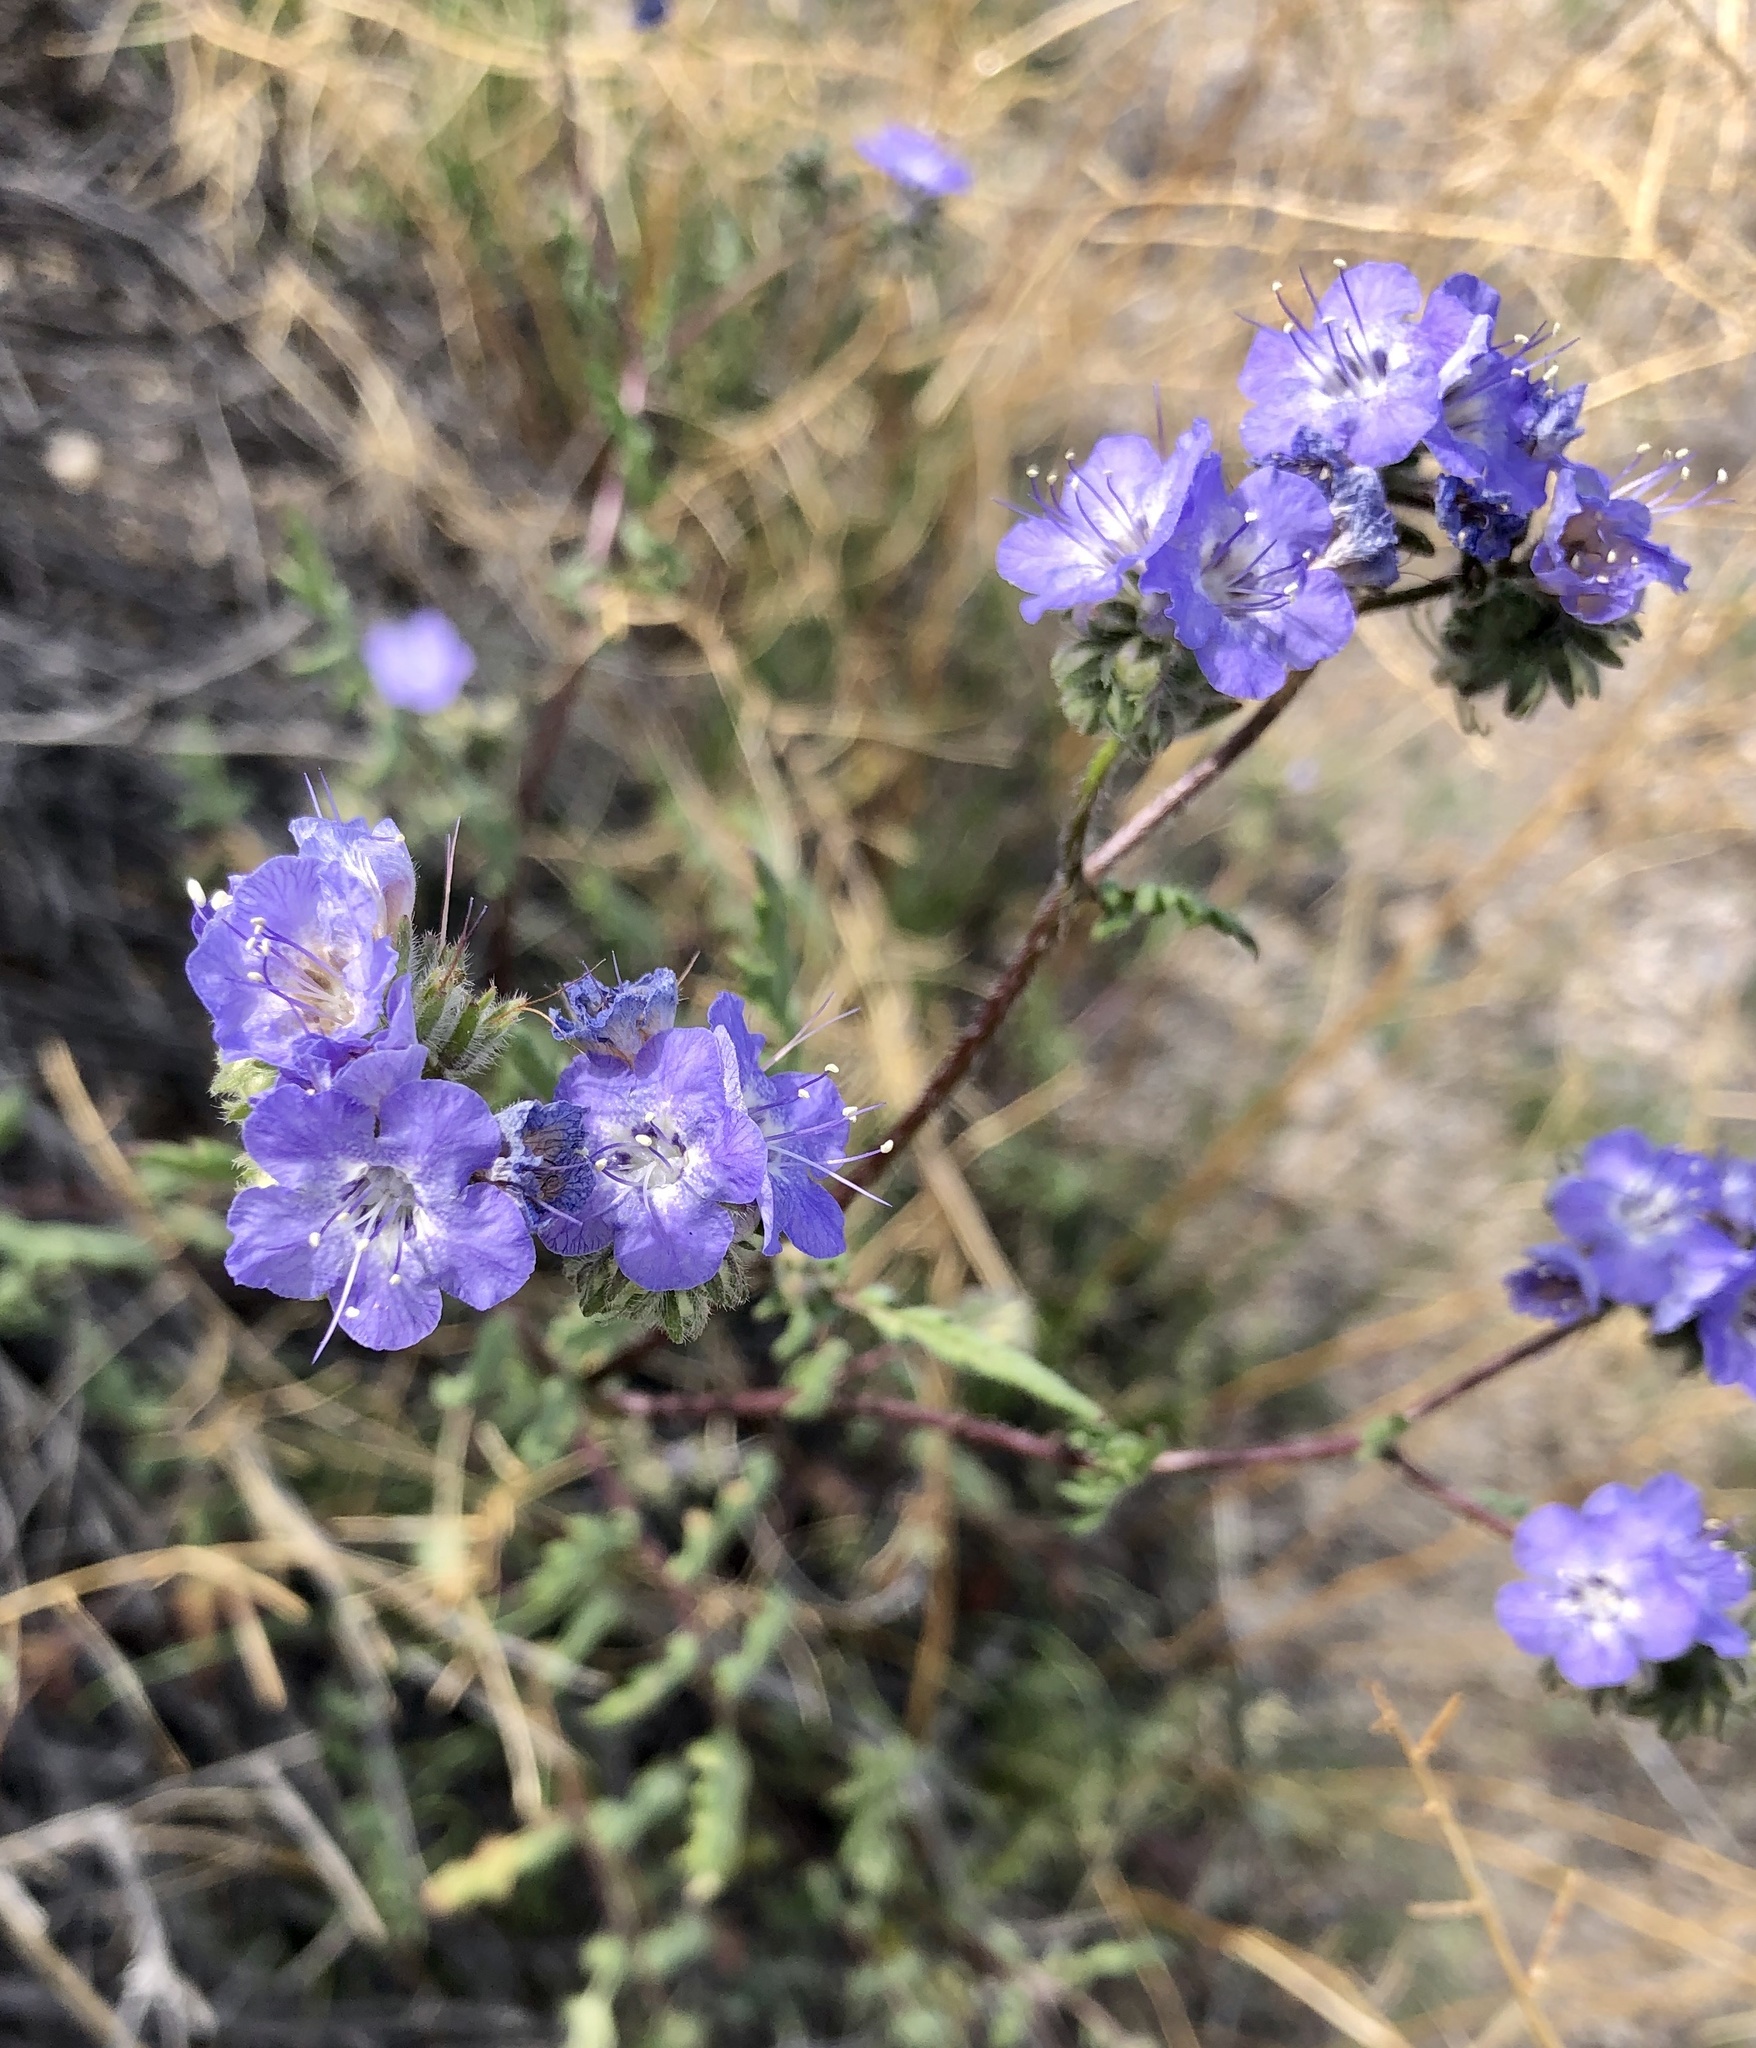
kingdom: Plantae
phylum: Tracheophyta
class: Magnoliopsida
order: Boraginales
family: Hydrophyllaceae
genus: Phacelia
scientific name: Phacelia distans
